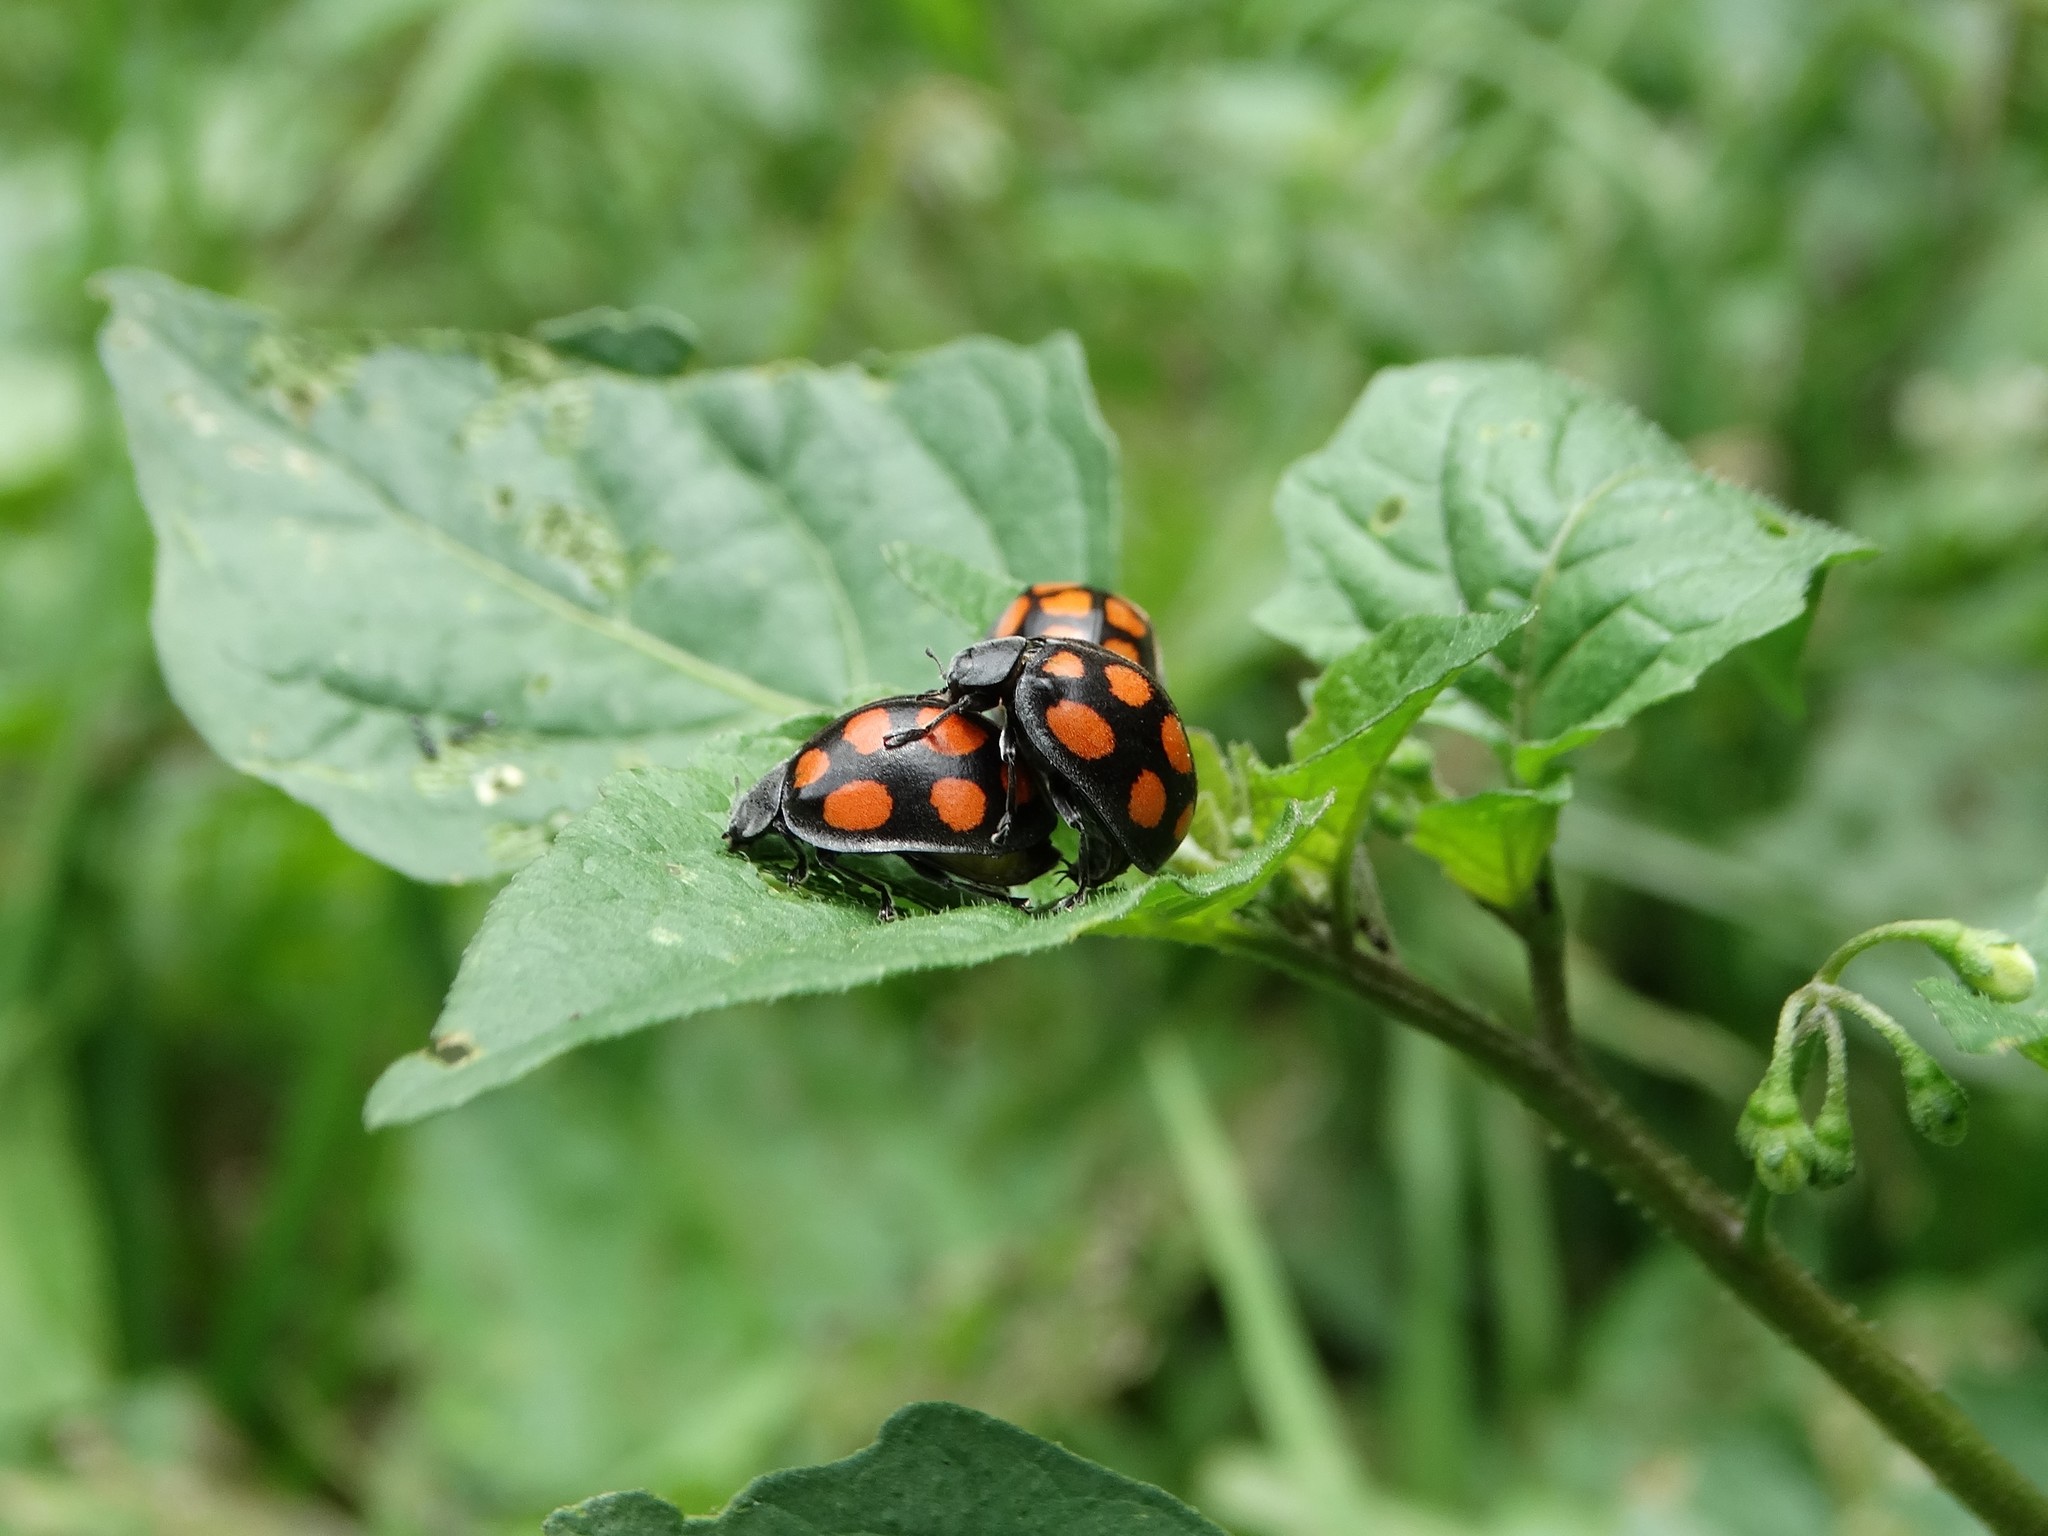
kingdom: Animalia
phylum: Arthropoda
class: Insecta
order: Coleoptera
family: Coccinellidae
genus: Epilachna
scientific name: Epilachna
